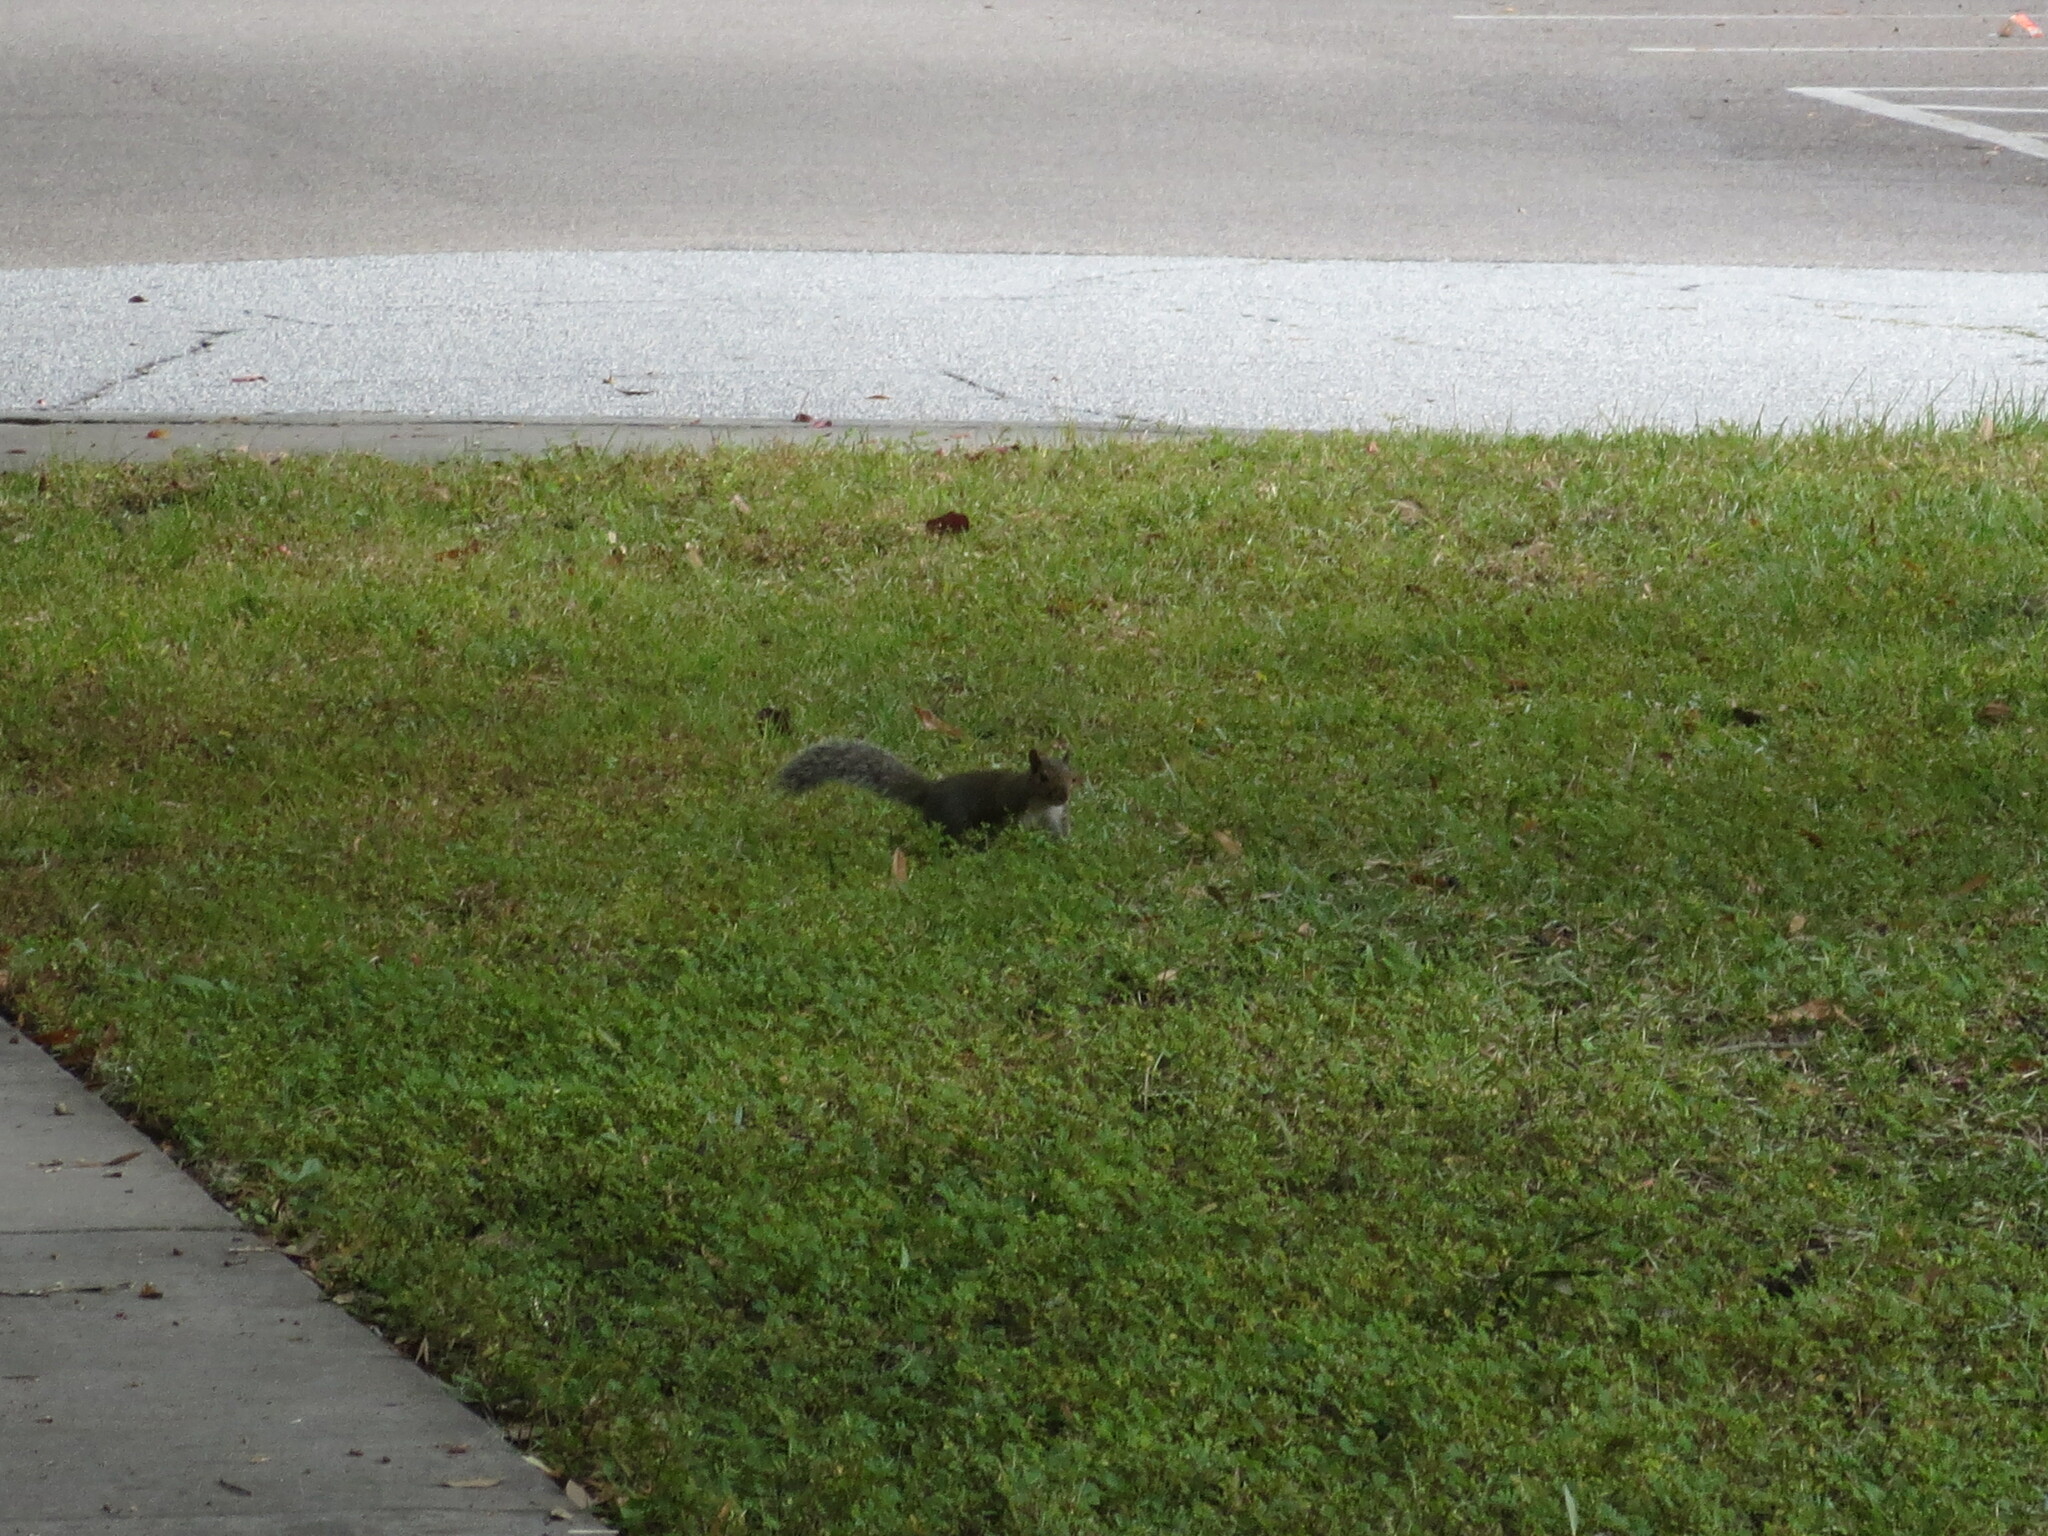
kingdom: Animalia
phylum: Chordata
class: Mammalia
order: Rodentia
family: Sciuridae
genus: Sciurus
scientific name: Sciurus carolinensis
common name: Eastern gray squirrel
